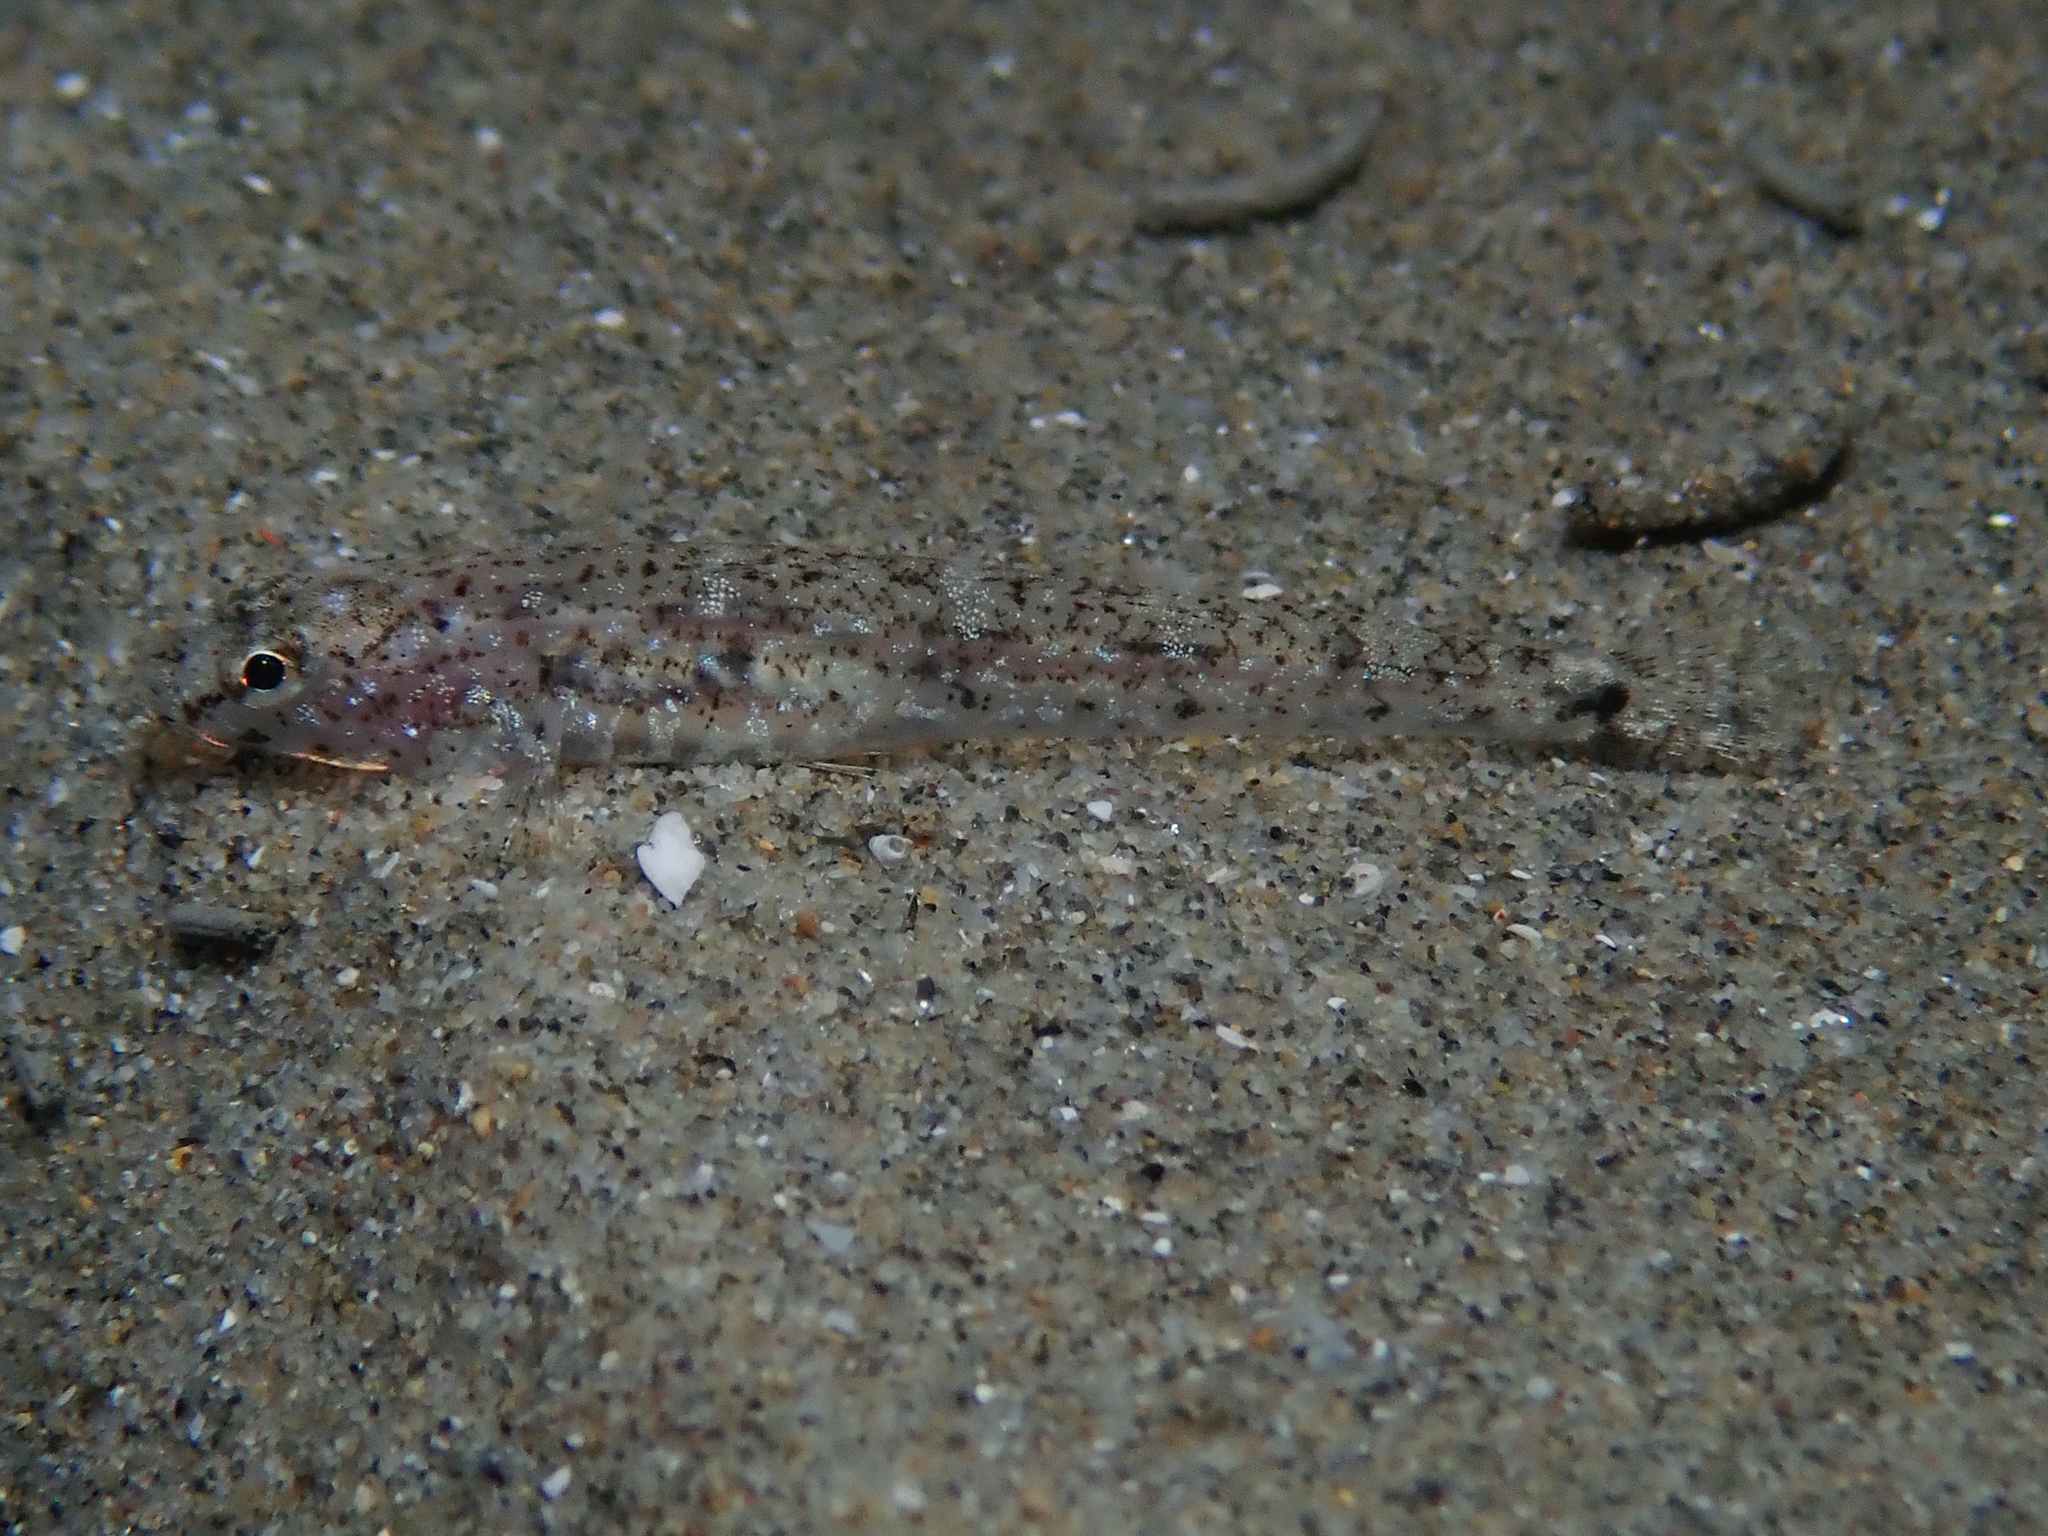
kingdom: Animalia
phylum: Chordata
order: Perciformes
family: Gobiidae
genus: Pomatoschistus
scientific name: Pomatoschistus marmoratus
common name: Marbled goby
